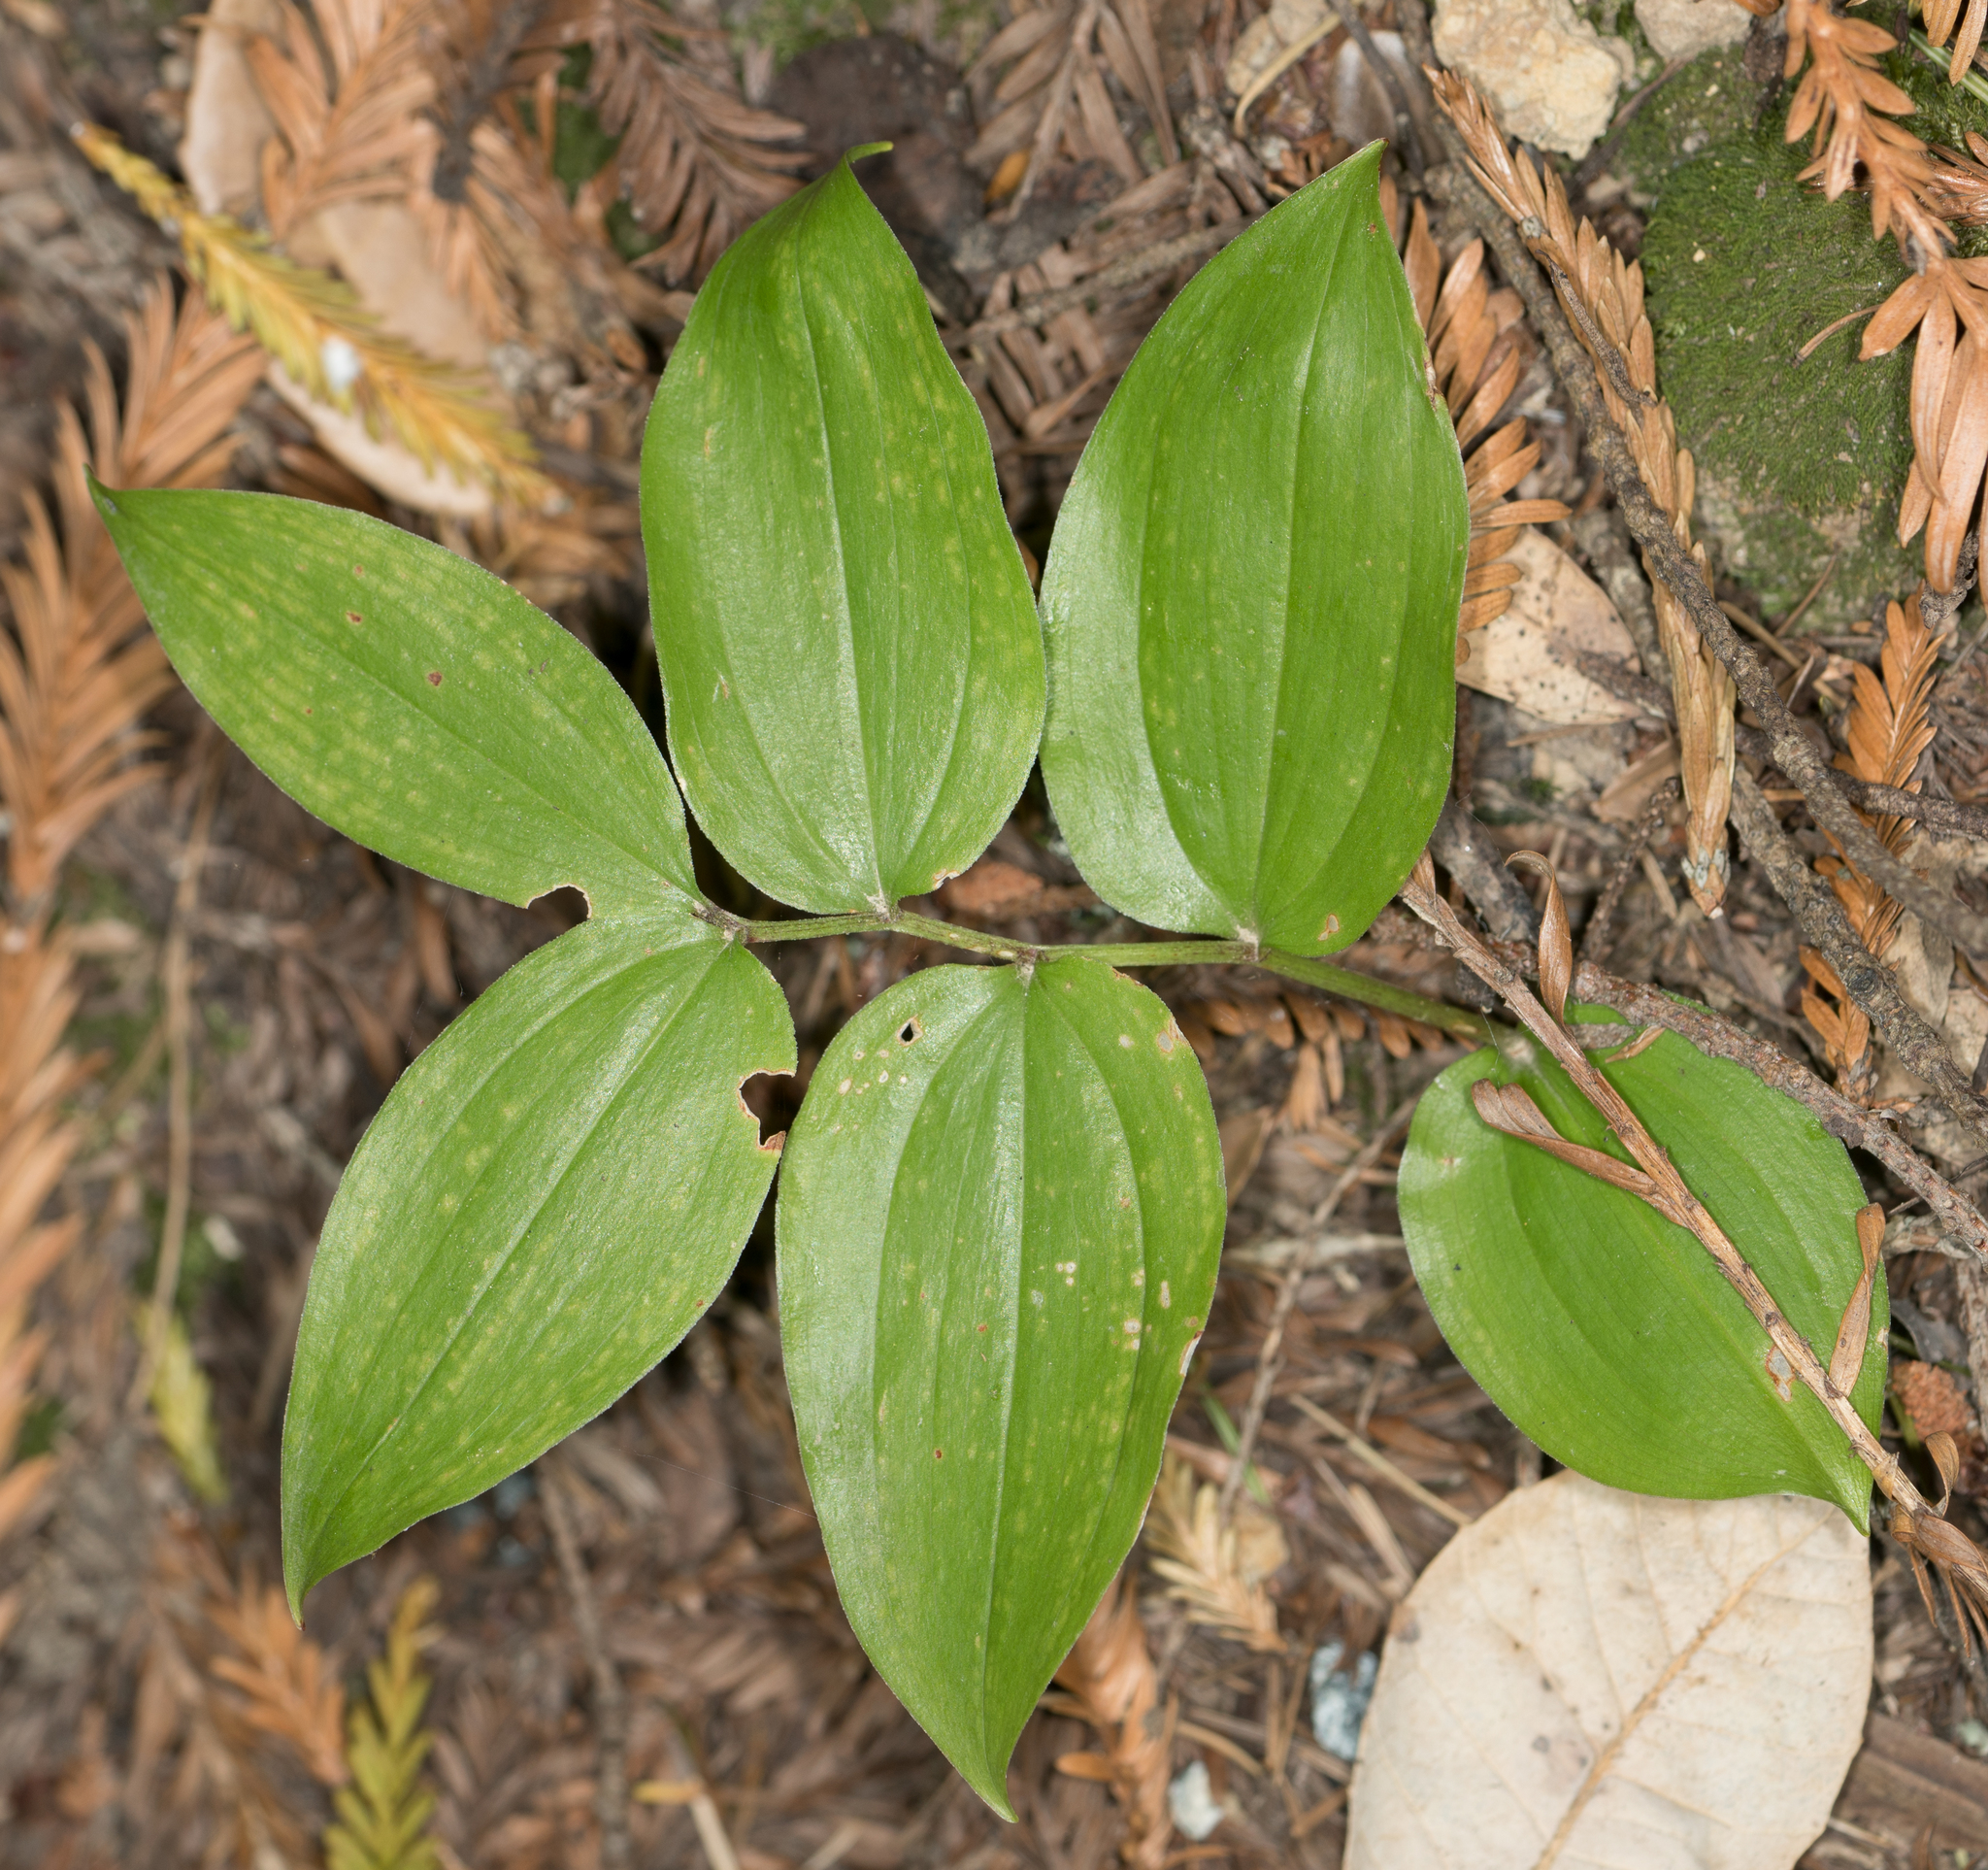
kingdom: Plantae
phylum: Tracheophyta
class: Liliopsida
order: Asparagales
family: Asparagaceae
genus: Maianthemum
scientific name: Maianthemum racemosum
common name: False spikenard
